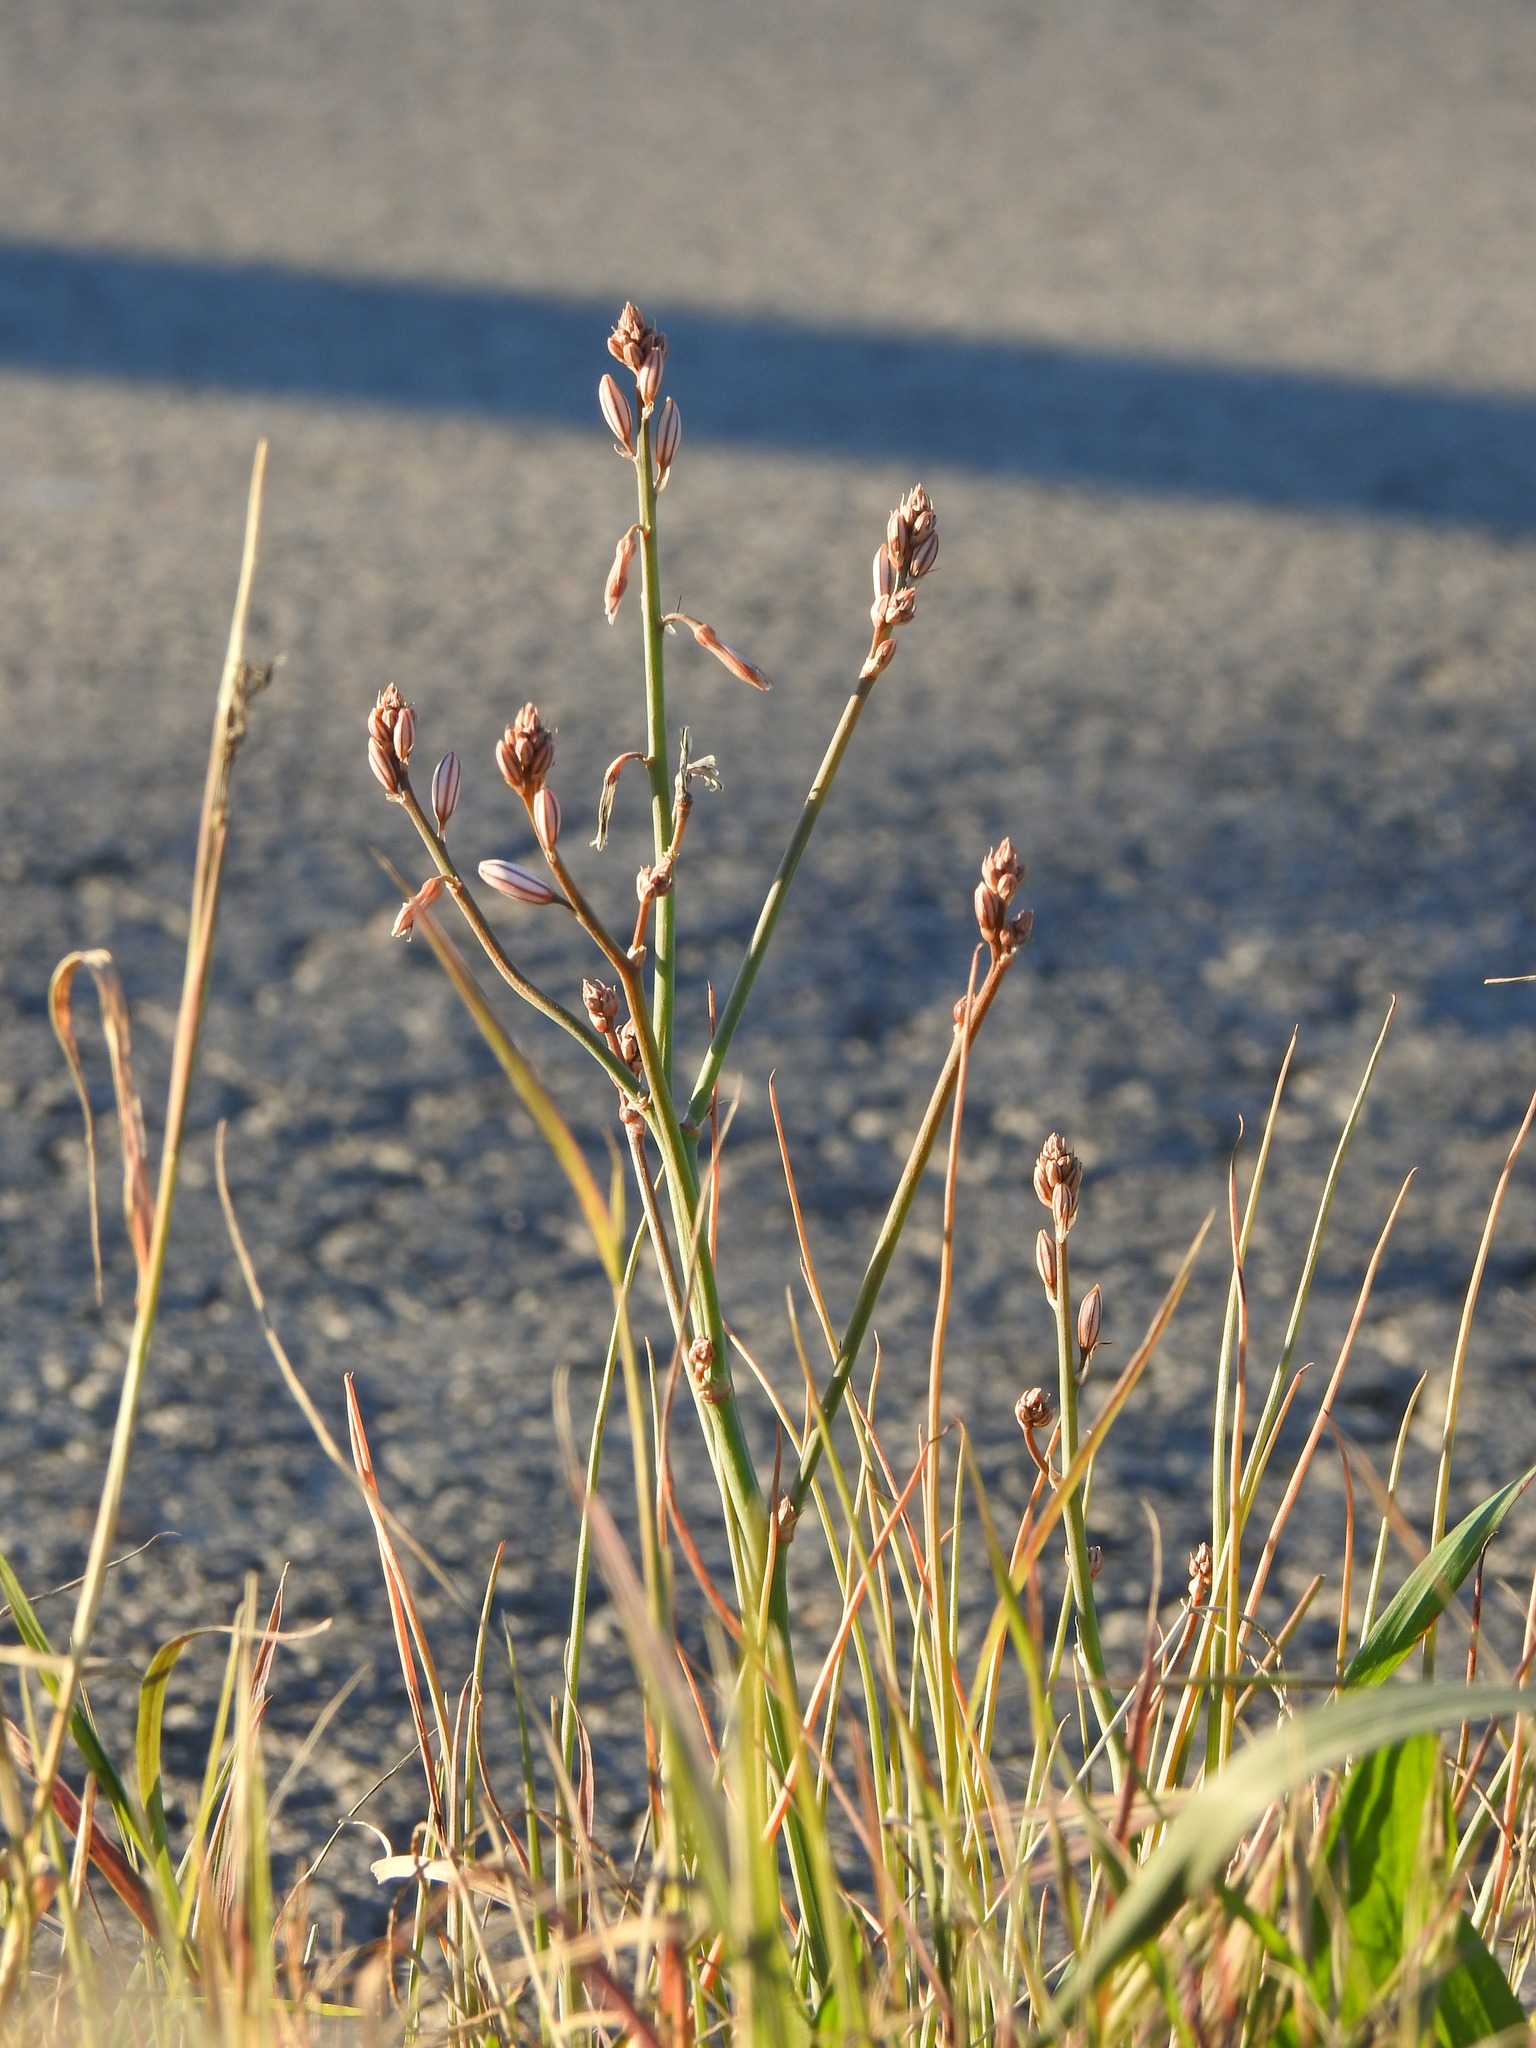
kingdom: Plantae
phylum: Tracheophyta
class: Liliopsida
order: Asparagales
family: Asphodelaceae
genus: Asphodelus
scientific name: Asphodelus fistulosus
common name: Onionweed
